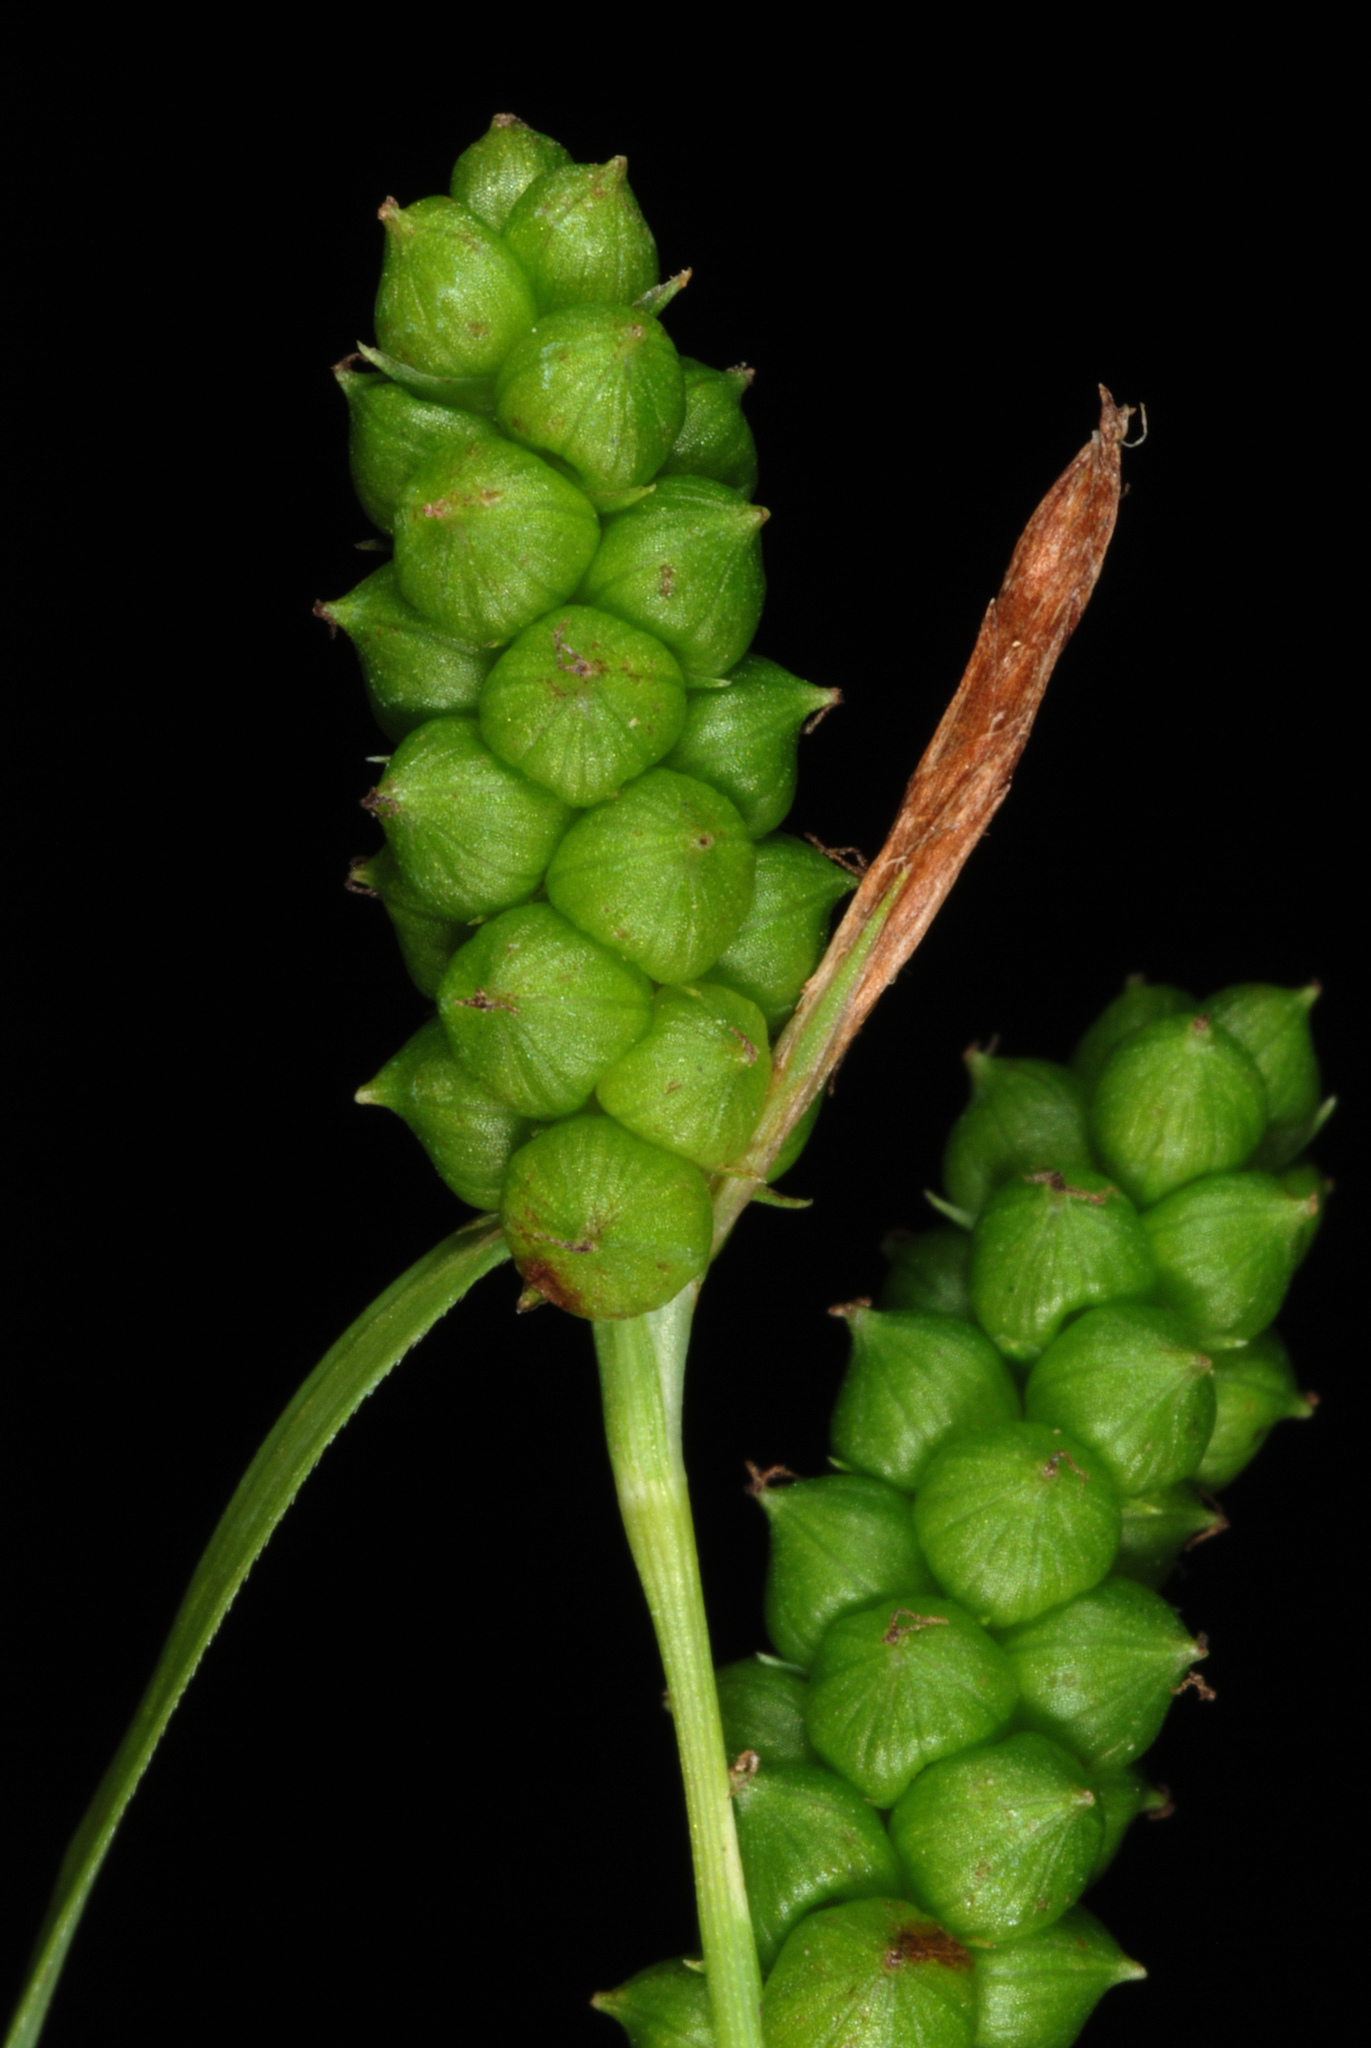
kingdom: Plantae
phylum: Tracheophyta
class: Liliopsida
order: Poales
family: Cyperaceae
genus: Carex
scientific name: Carex granularis
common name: Granular sedge
